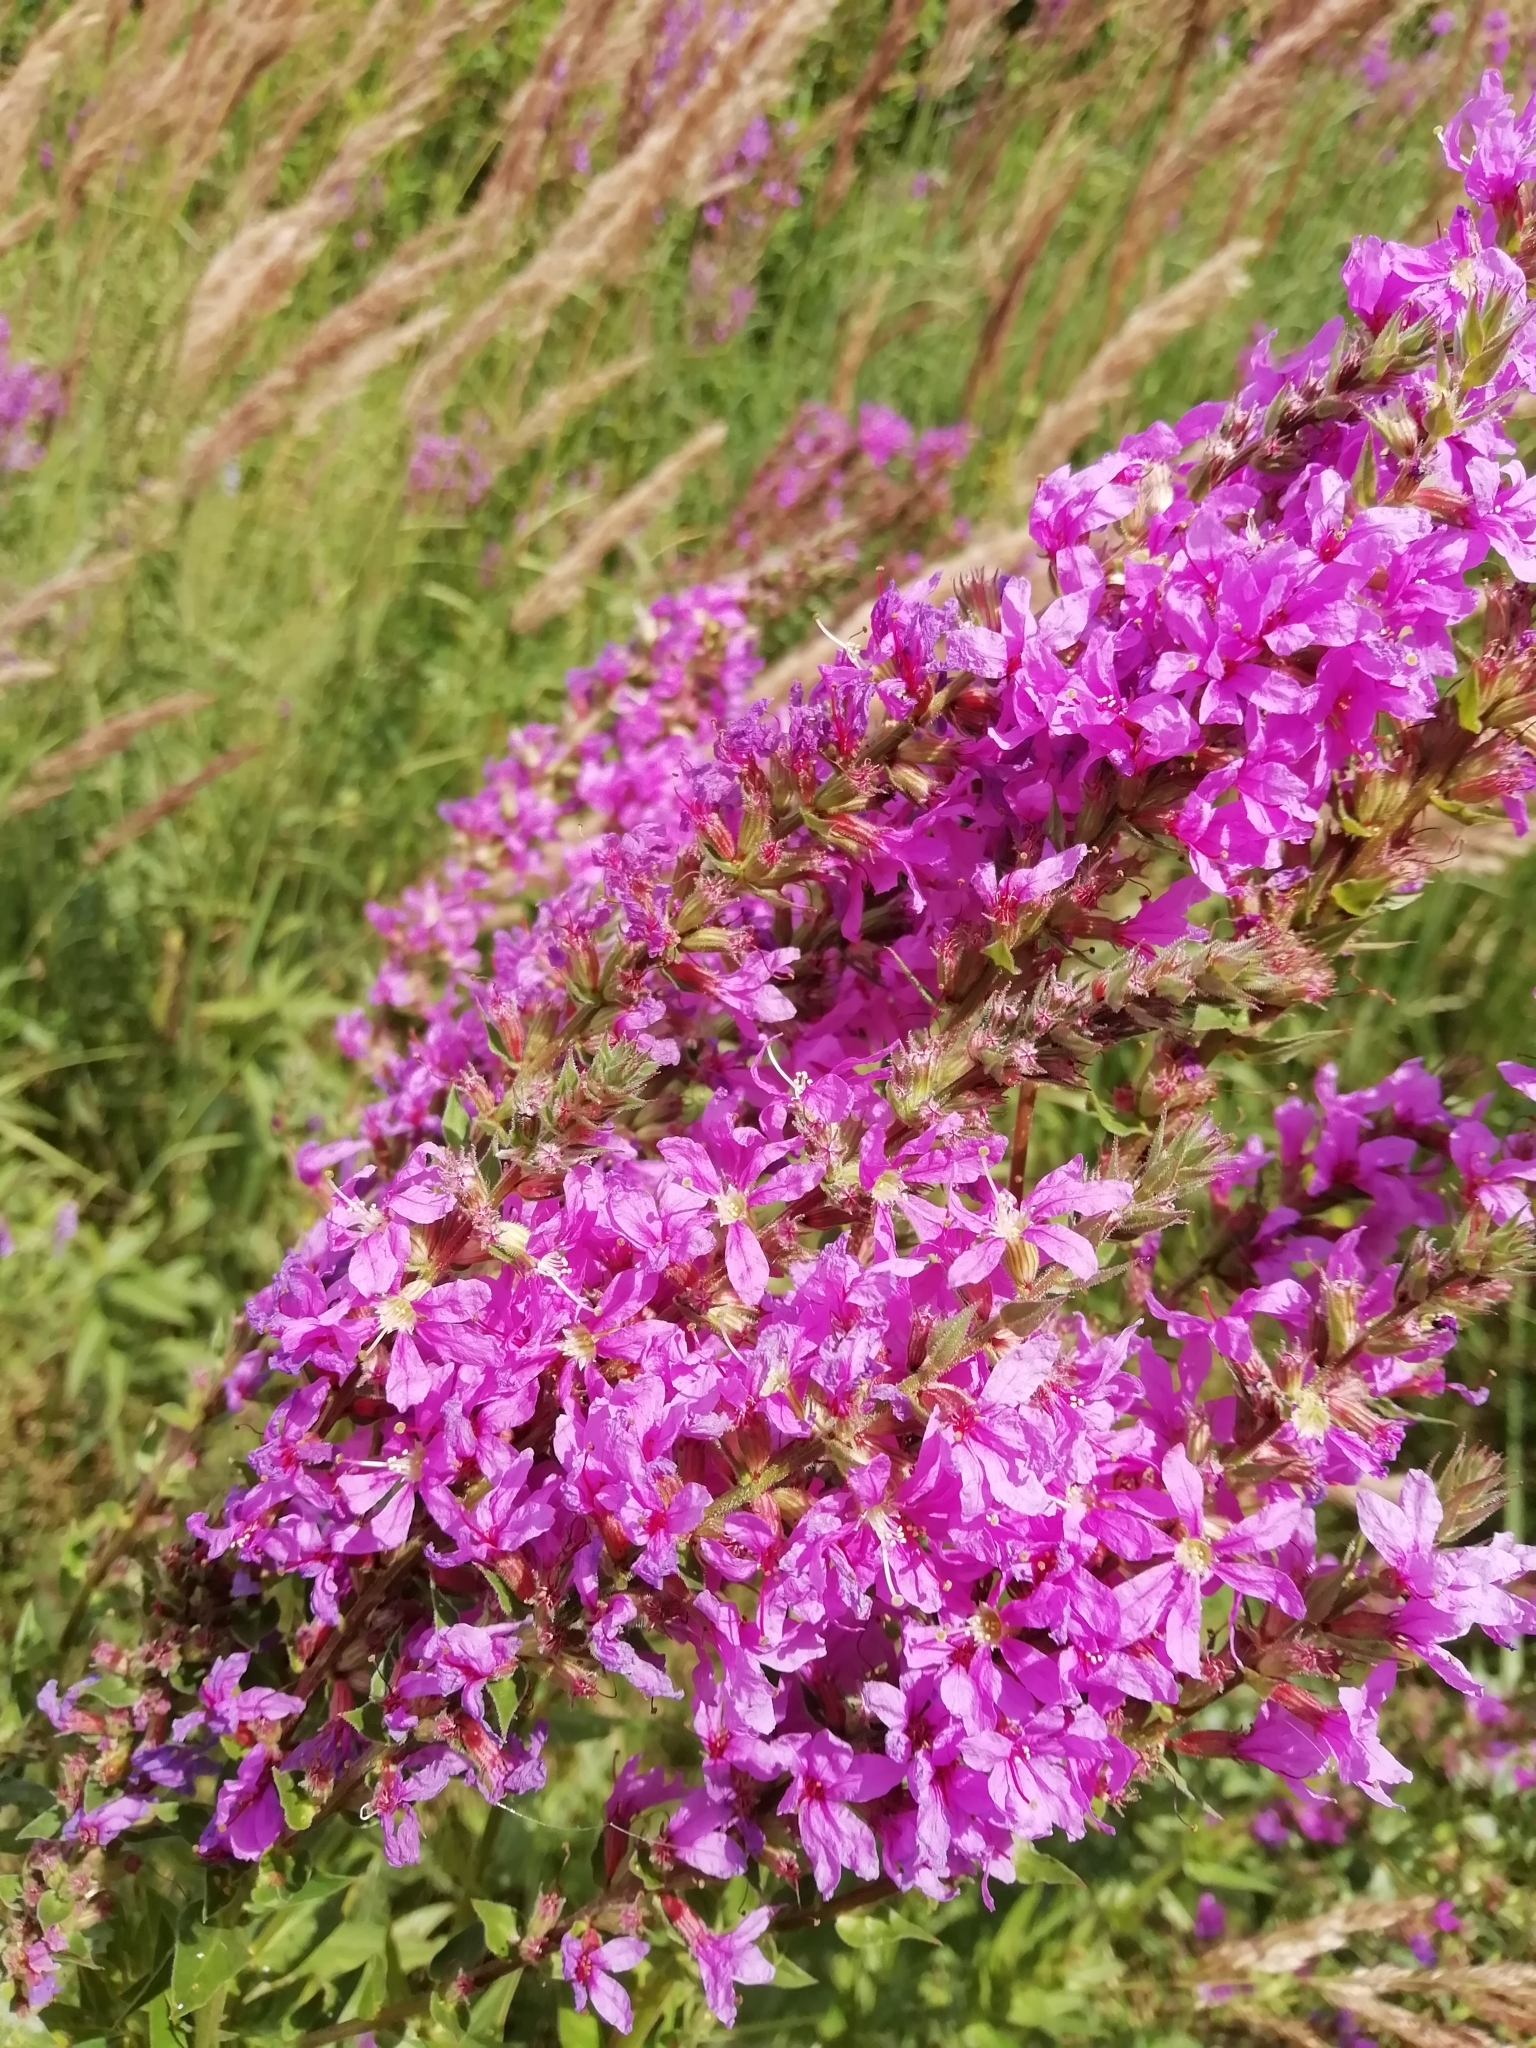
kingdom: Plantae
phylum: Tracheophyta
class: Magnoliopsida
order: Myrtales
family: Lythraceae
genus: Lythrum
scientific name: Lythrum salicaria
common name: Purple loosestrife
